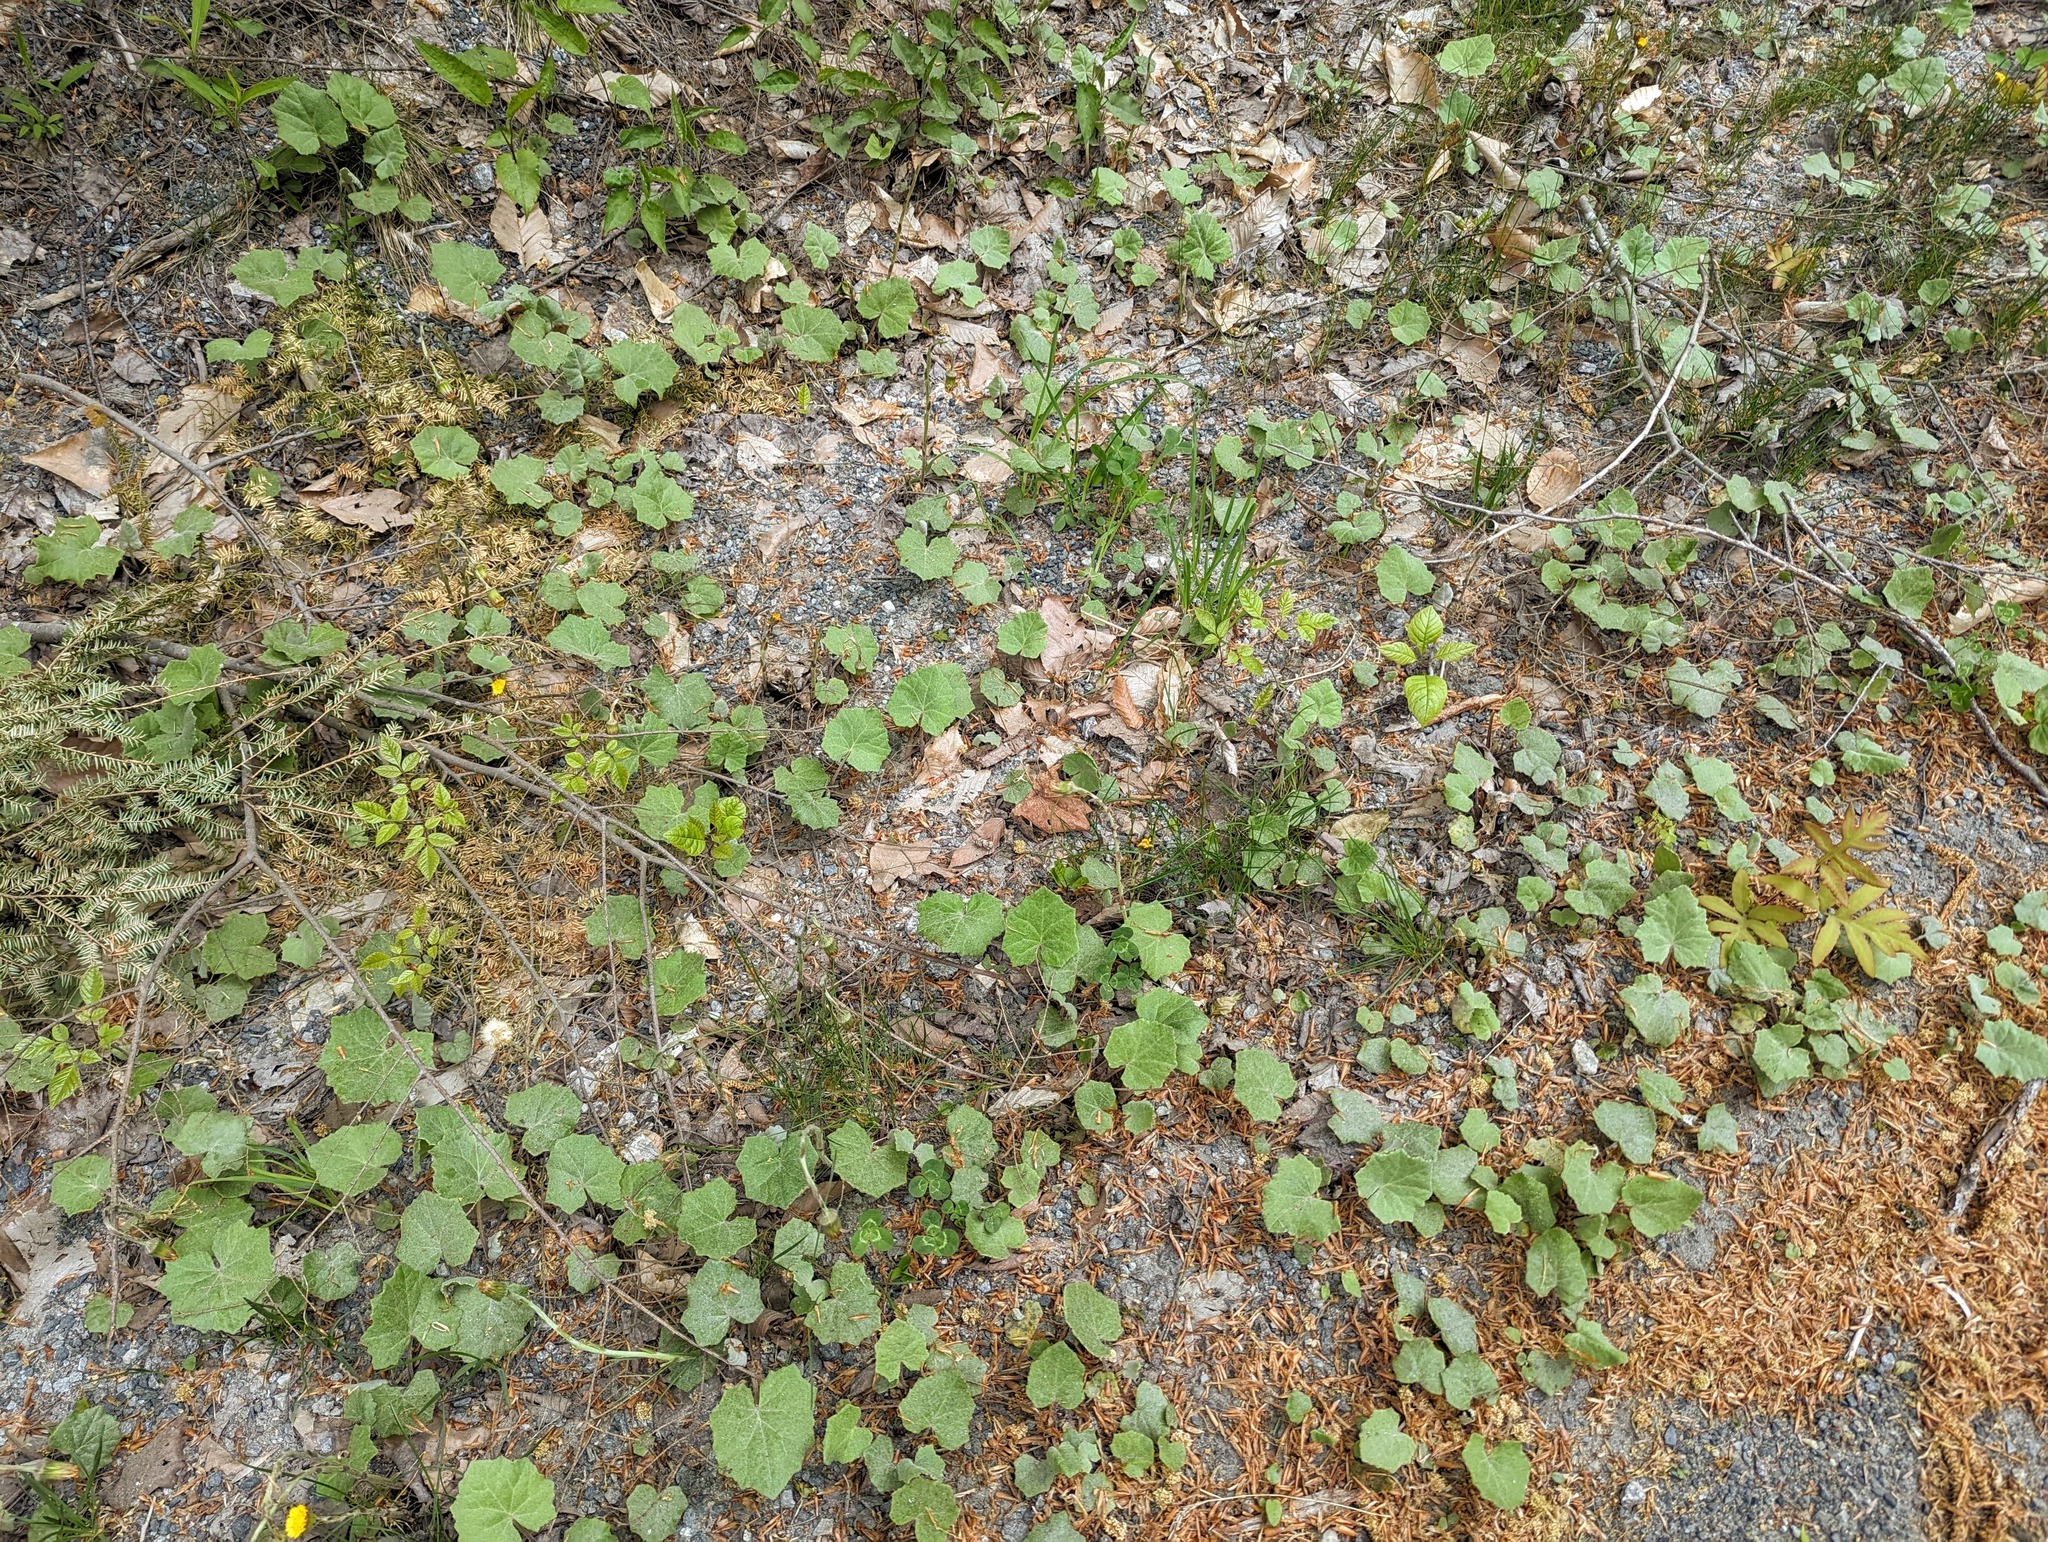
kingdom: Plantae
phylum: Tracheophyta
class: Magnoliopsida
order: Asterales
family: Asteraceae
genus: Tussilago
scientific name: Tussilago farfara
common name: Coltsfoot
